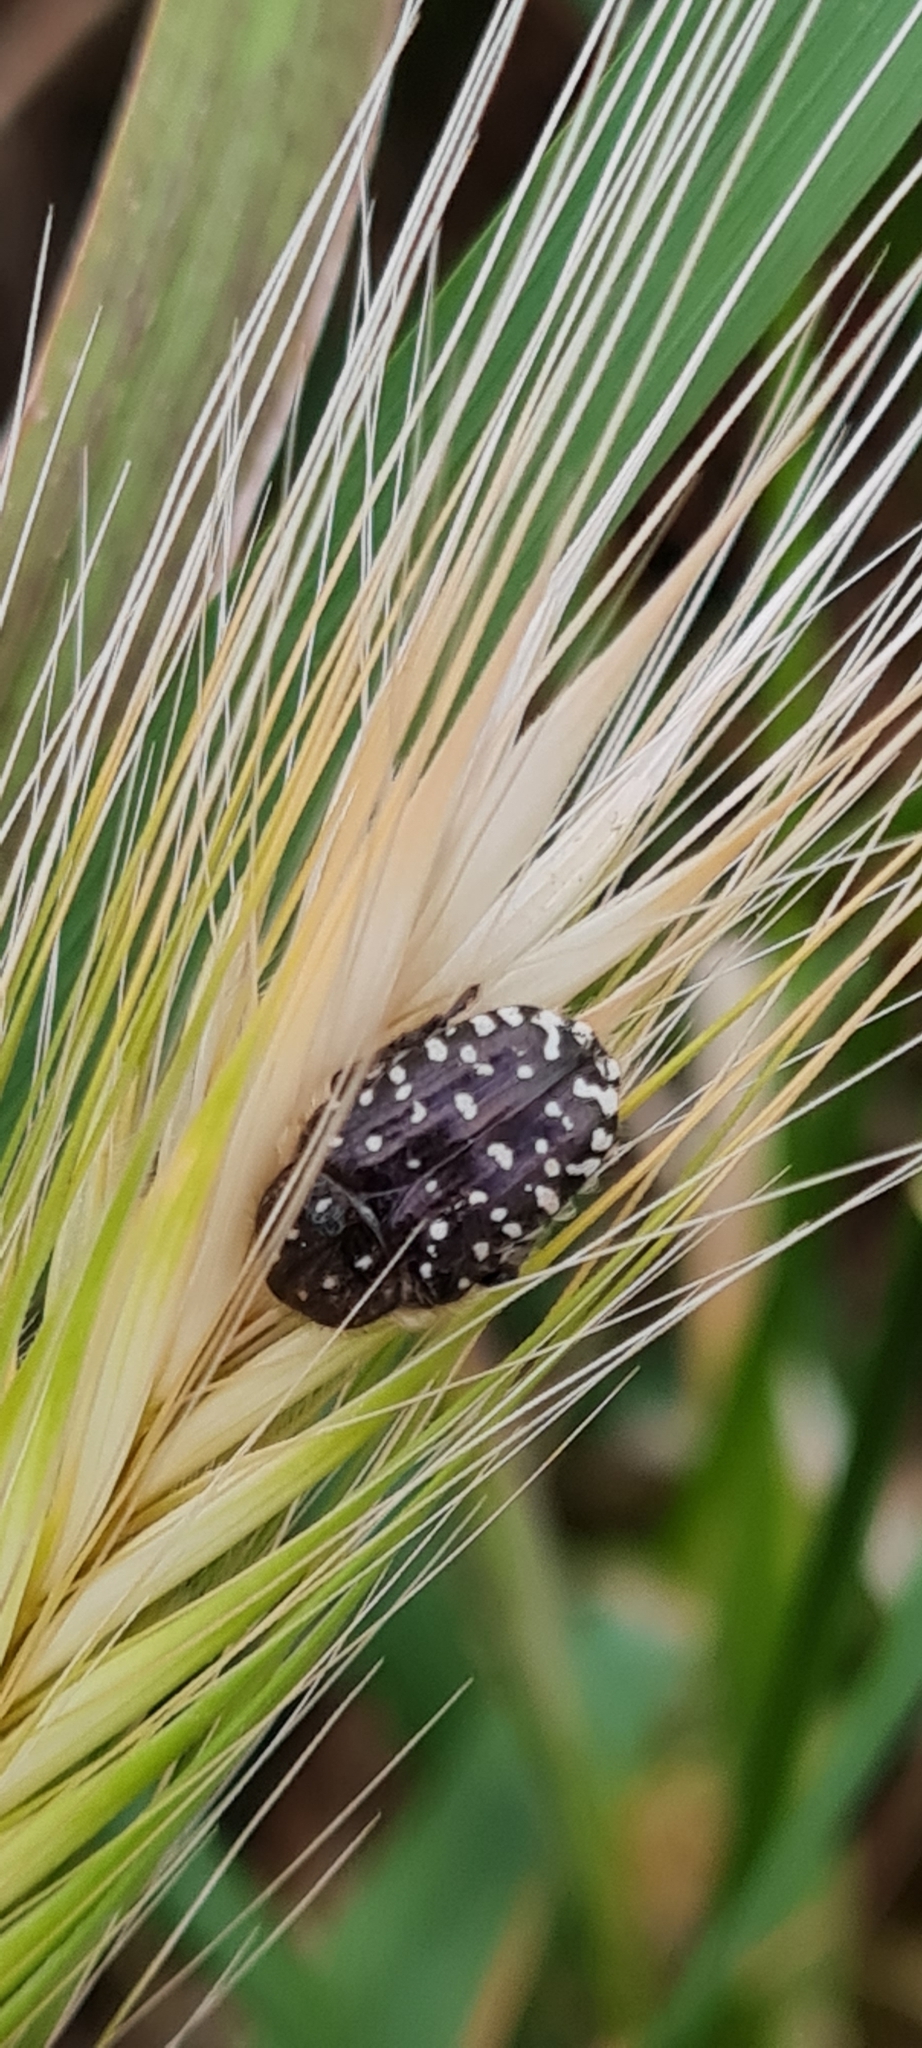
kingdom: Animalia
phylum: Arthropoda
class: Insecta
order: Coleoptera
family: Scarabaeidae
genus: Oxythyrea
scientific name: Oxythyrea funesta
